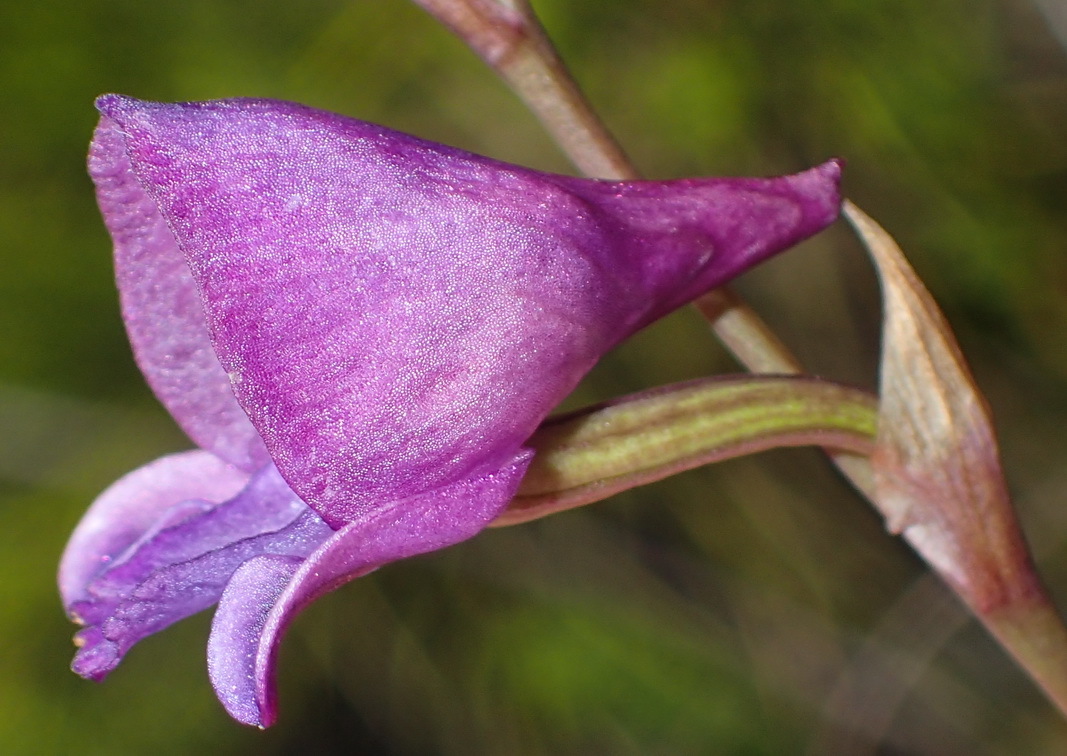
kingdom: Plantae
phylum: Tracheophyta
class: Liliopsida
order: Asparagales
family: Orchidaceae
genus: Disa
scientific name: Disa hians
